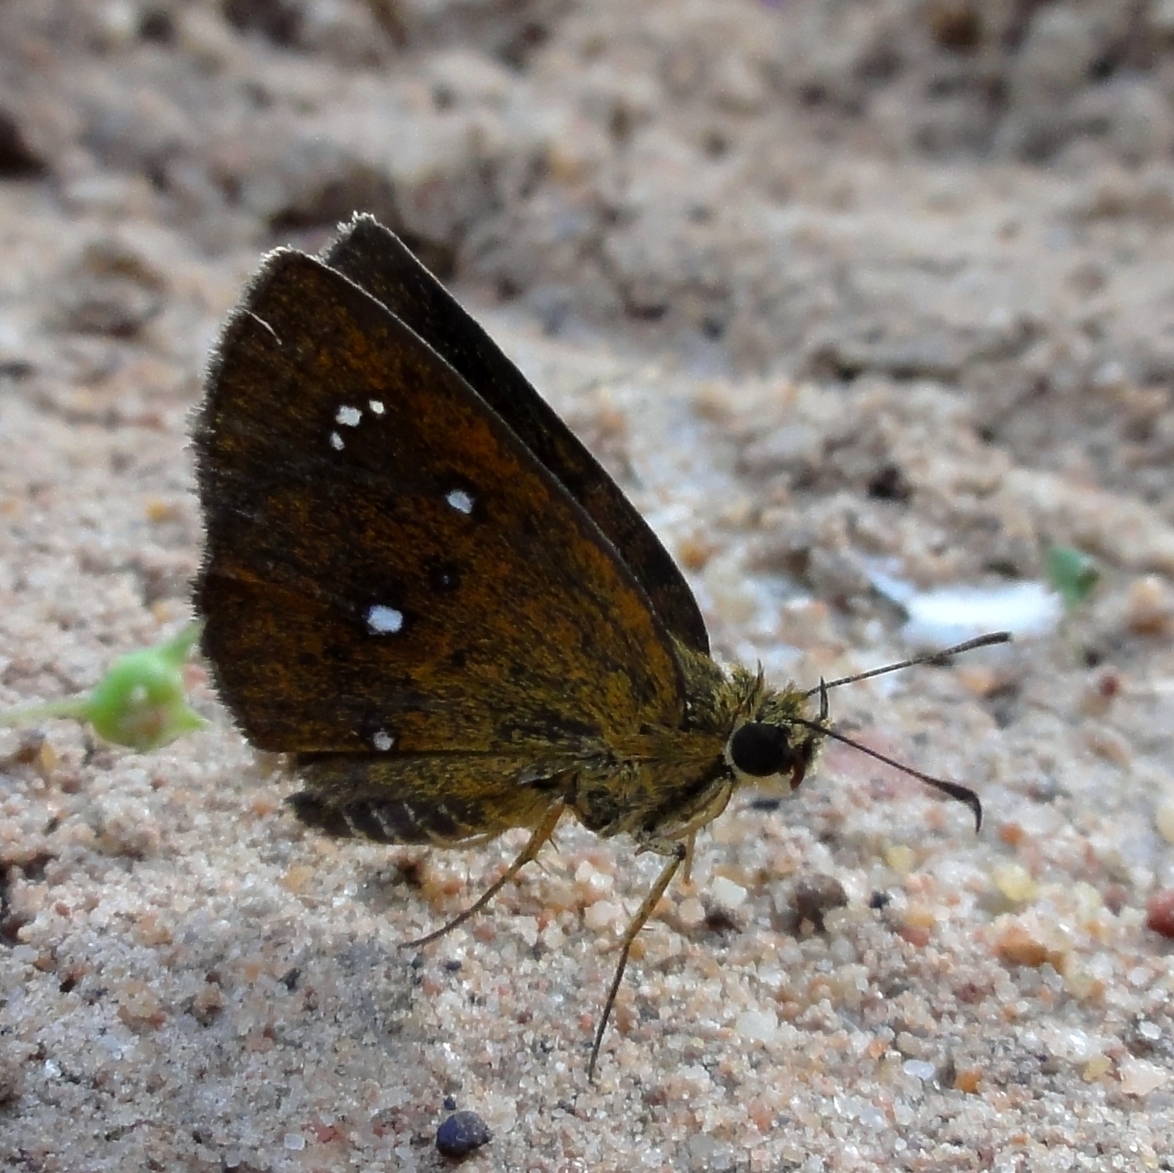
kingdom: Animalia
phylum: Arthropoda
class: Insecta
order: Lepidoptera
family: Hesperiidae
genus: Iambrix
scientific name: Iambrix salsala
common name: Chestnut bob
